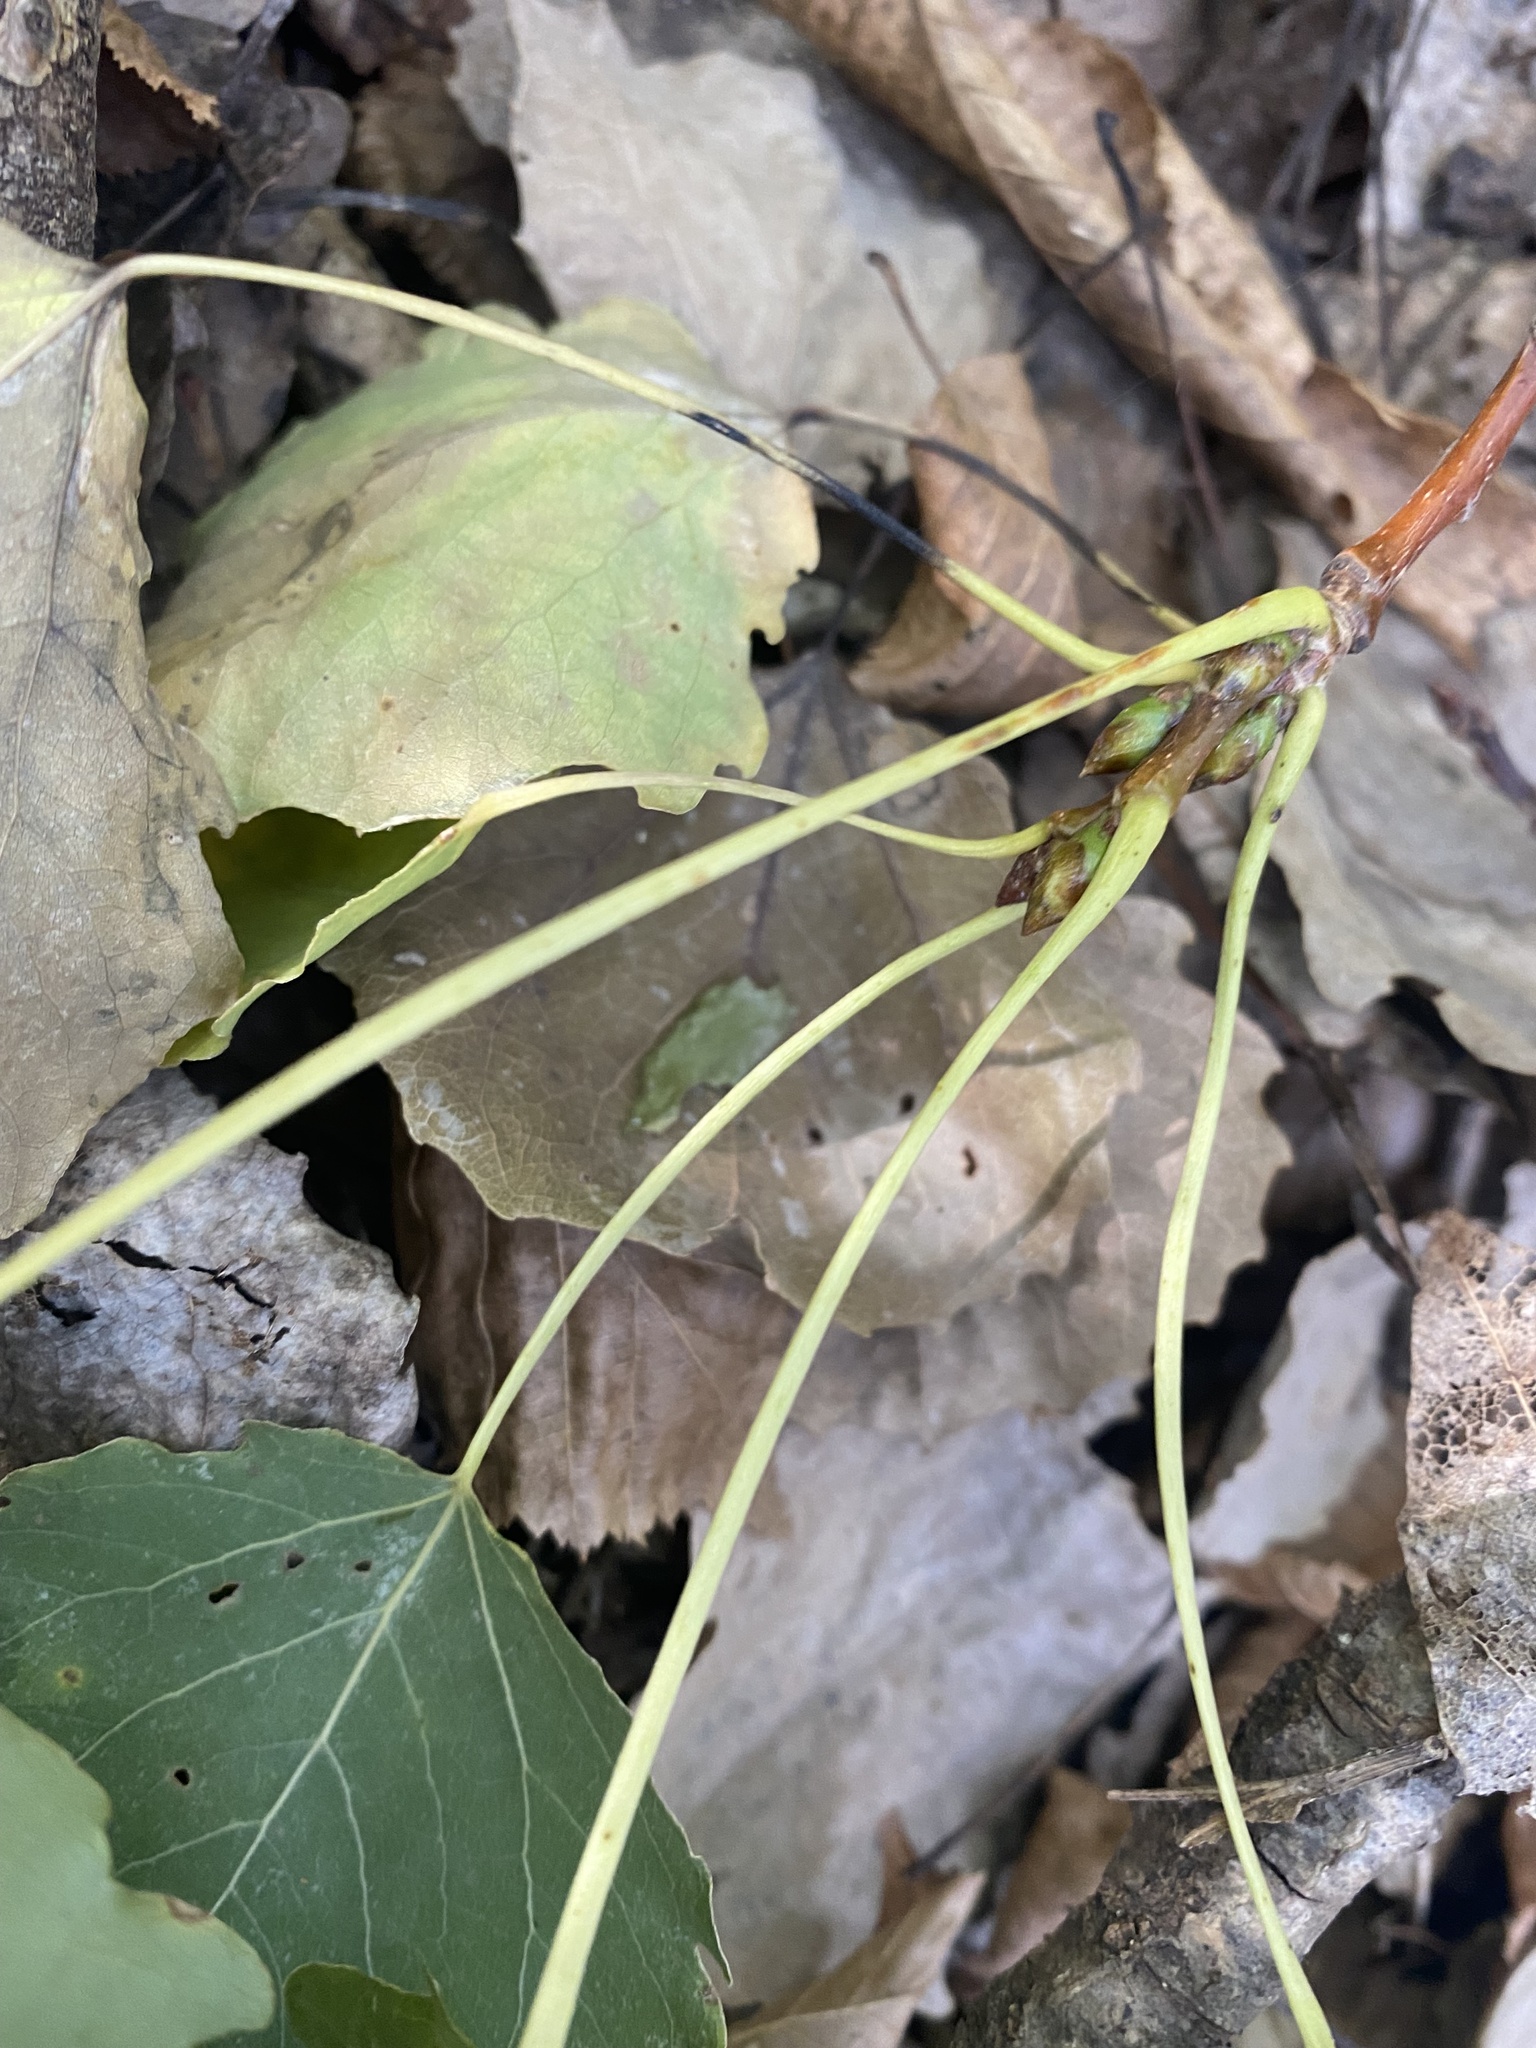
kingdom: Plantae
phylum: Tracheophyta
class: Magnoliopsida
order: Malpighiales
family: Salicaceae
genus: Populus
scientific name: Populus tremula
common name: European aspen
